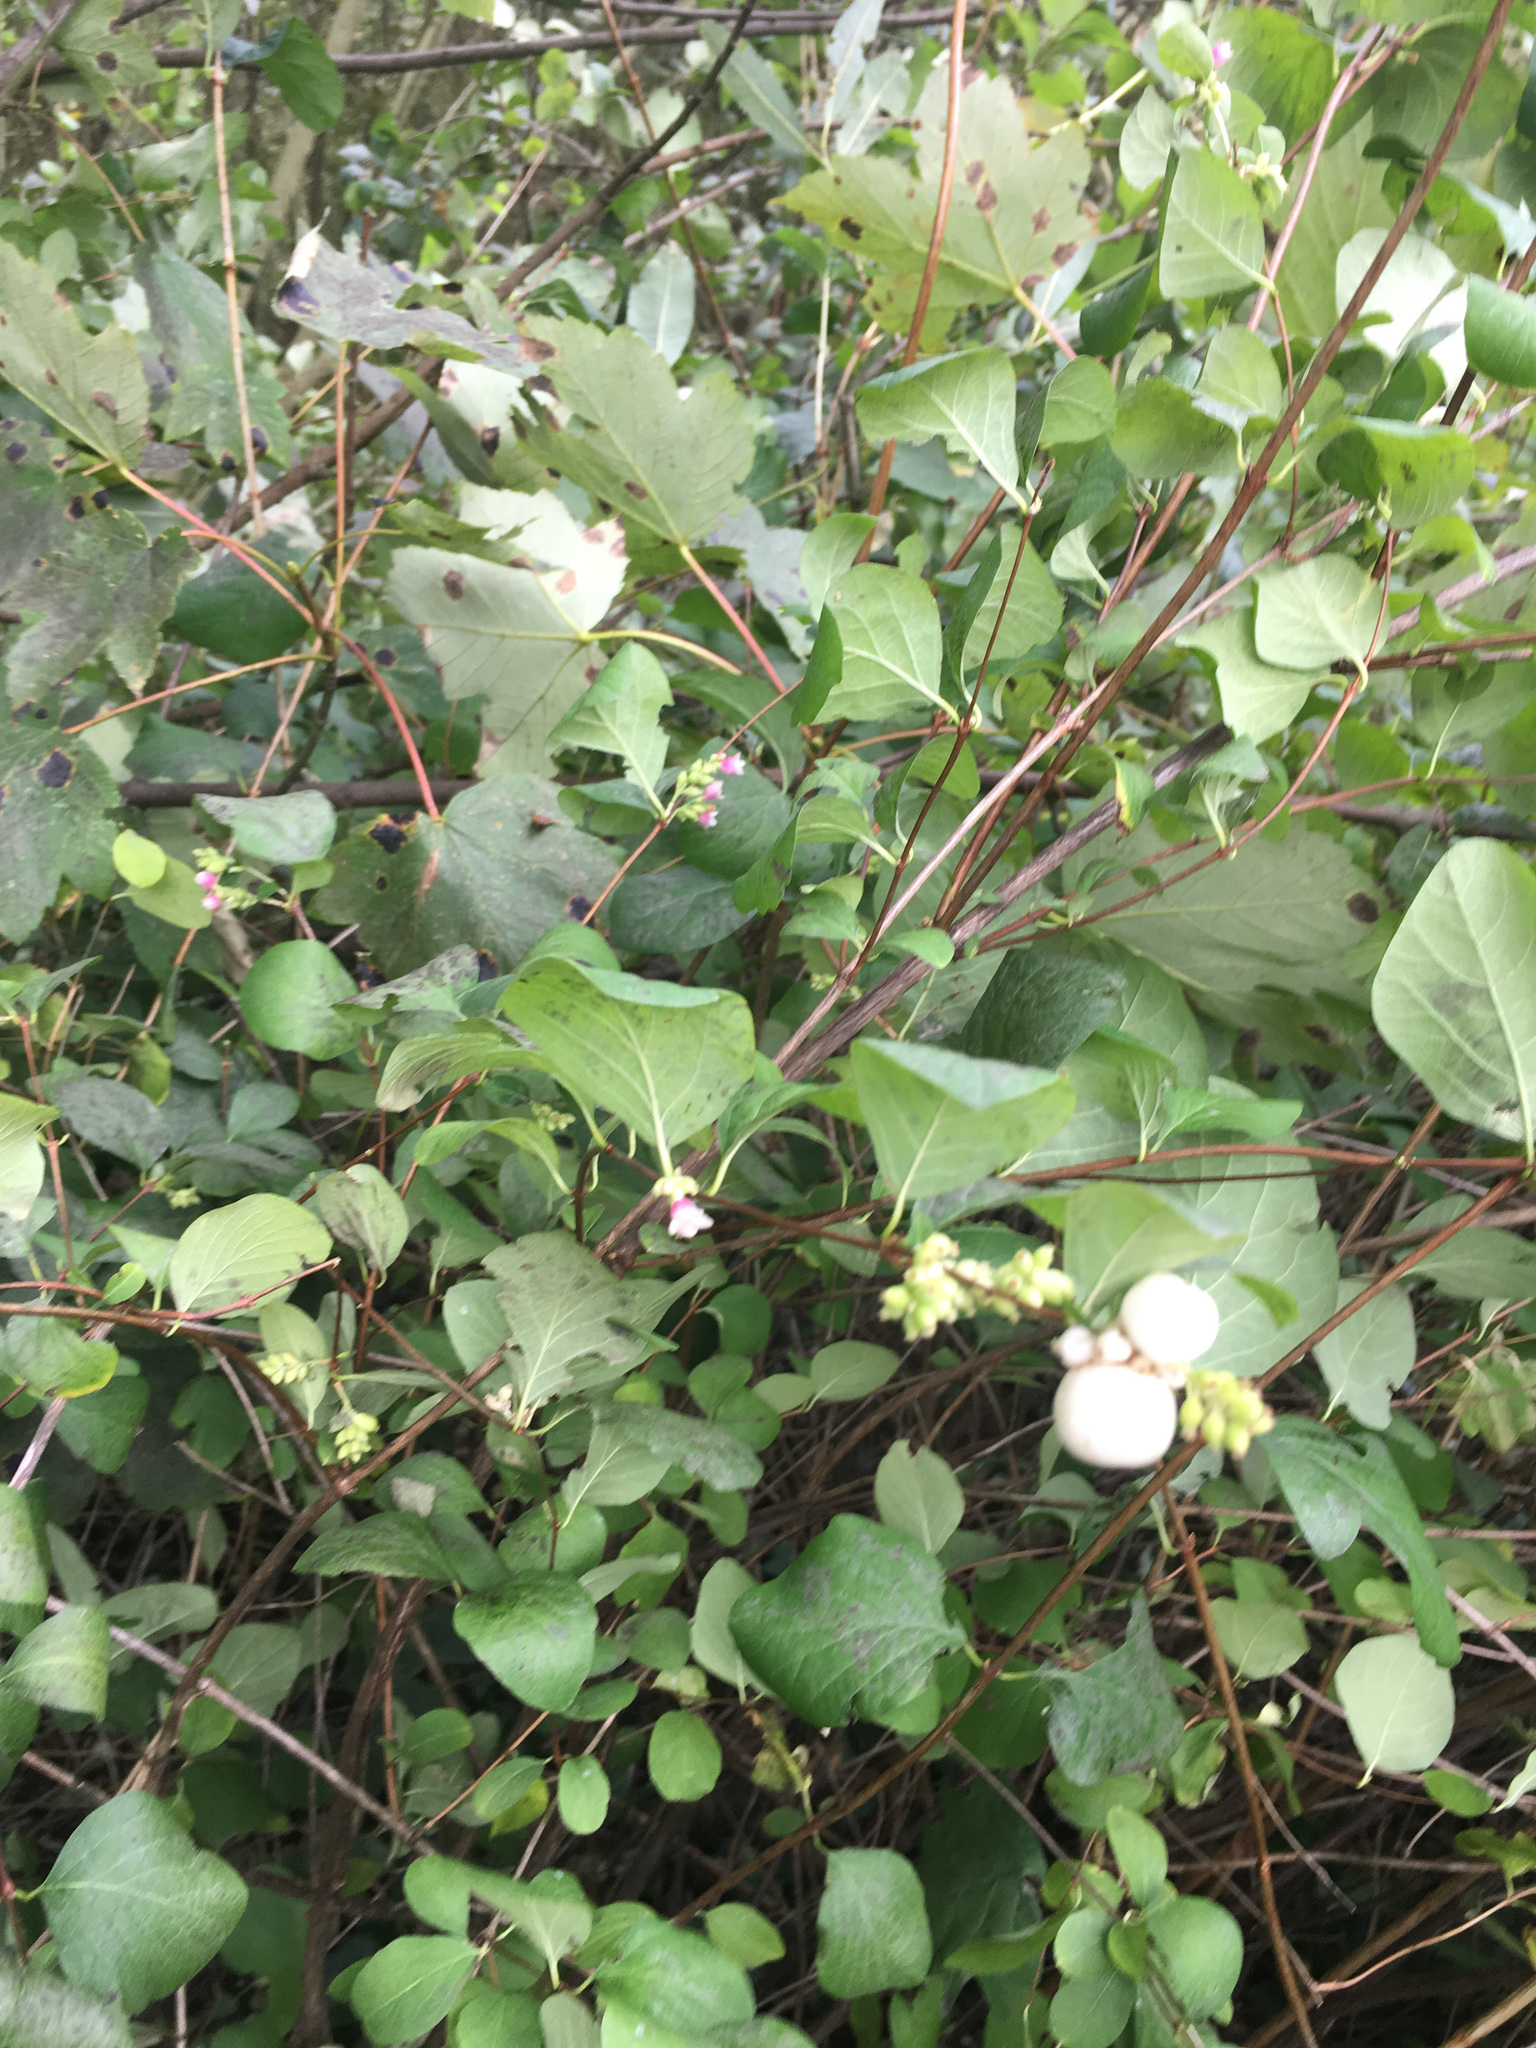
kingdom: Plantae
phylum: Tracheophyta
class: Magnoliopsida
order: Dipsacales
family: Caprifoliaceae
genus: Symphoricarpos
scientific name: Symphoricarpos albus
